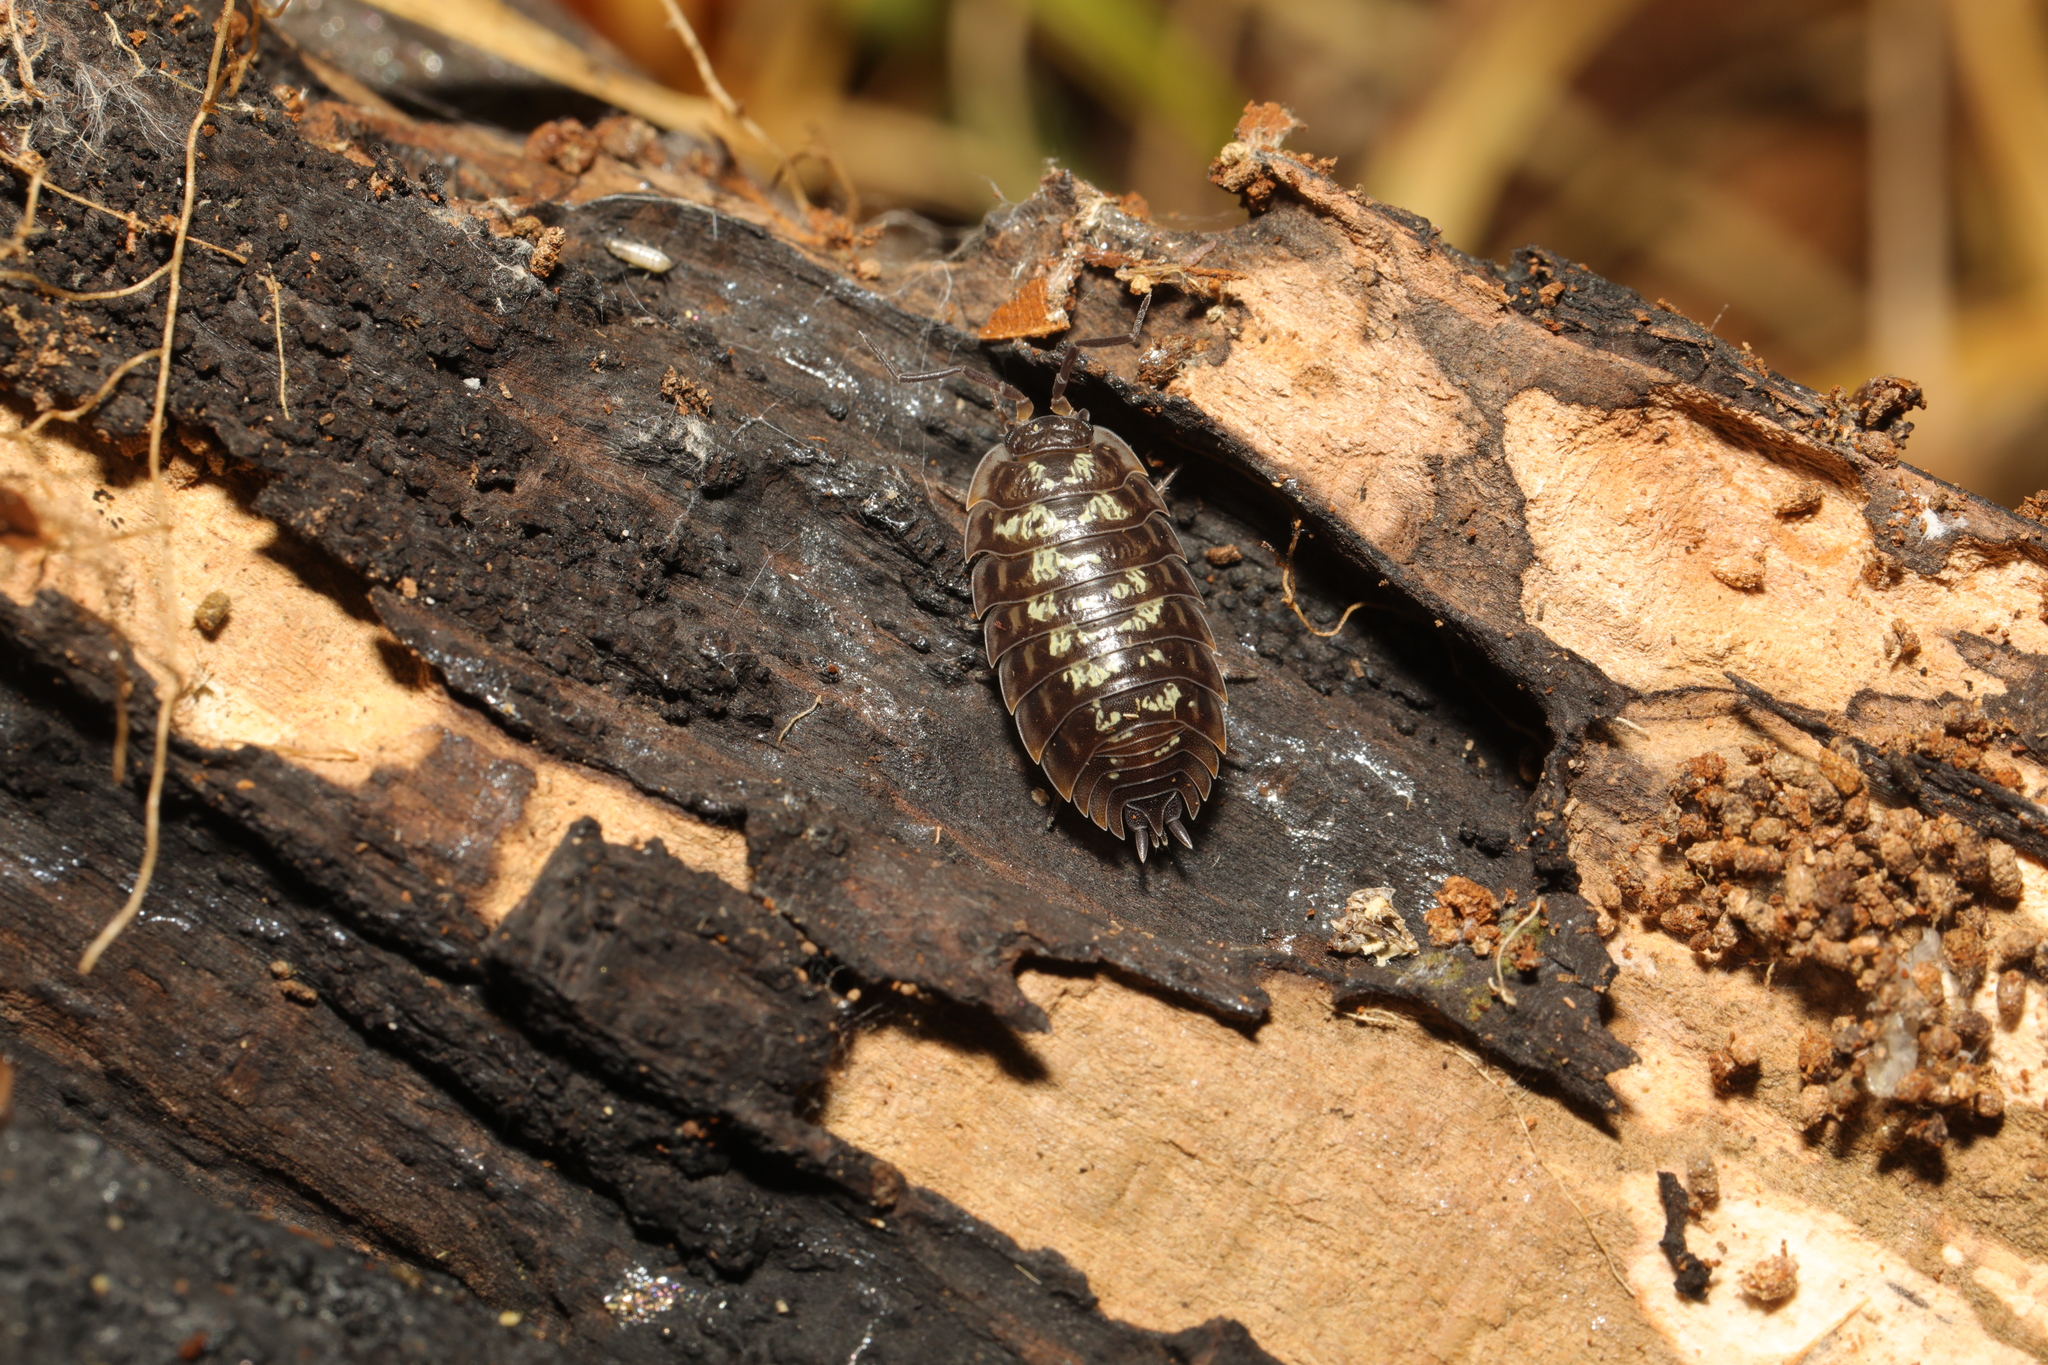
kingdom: Animalia
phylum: Arthropoda
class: Malacostraca
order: Isopoda
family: Oniscidae
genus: Oniscus
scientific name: Oniscus asellus
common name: Common shiny woodlouse
